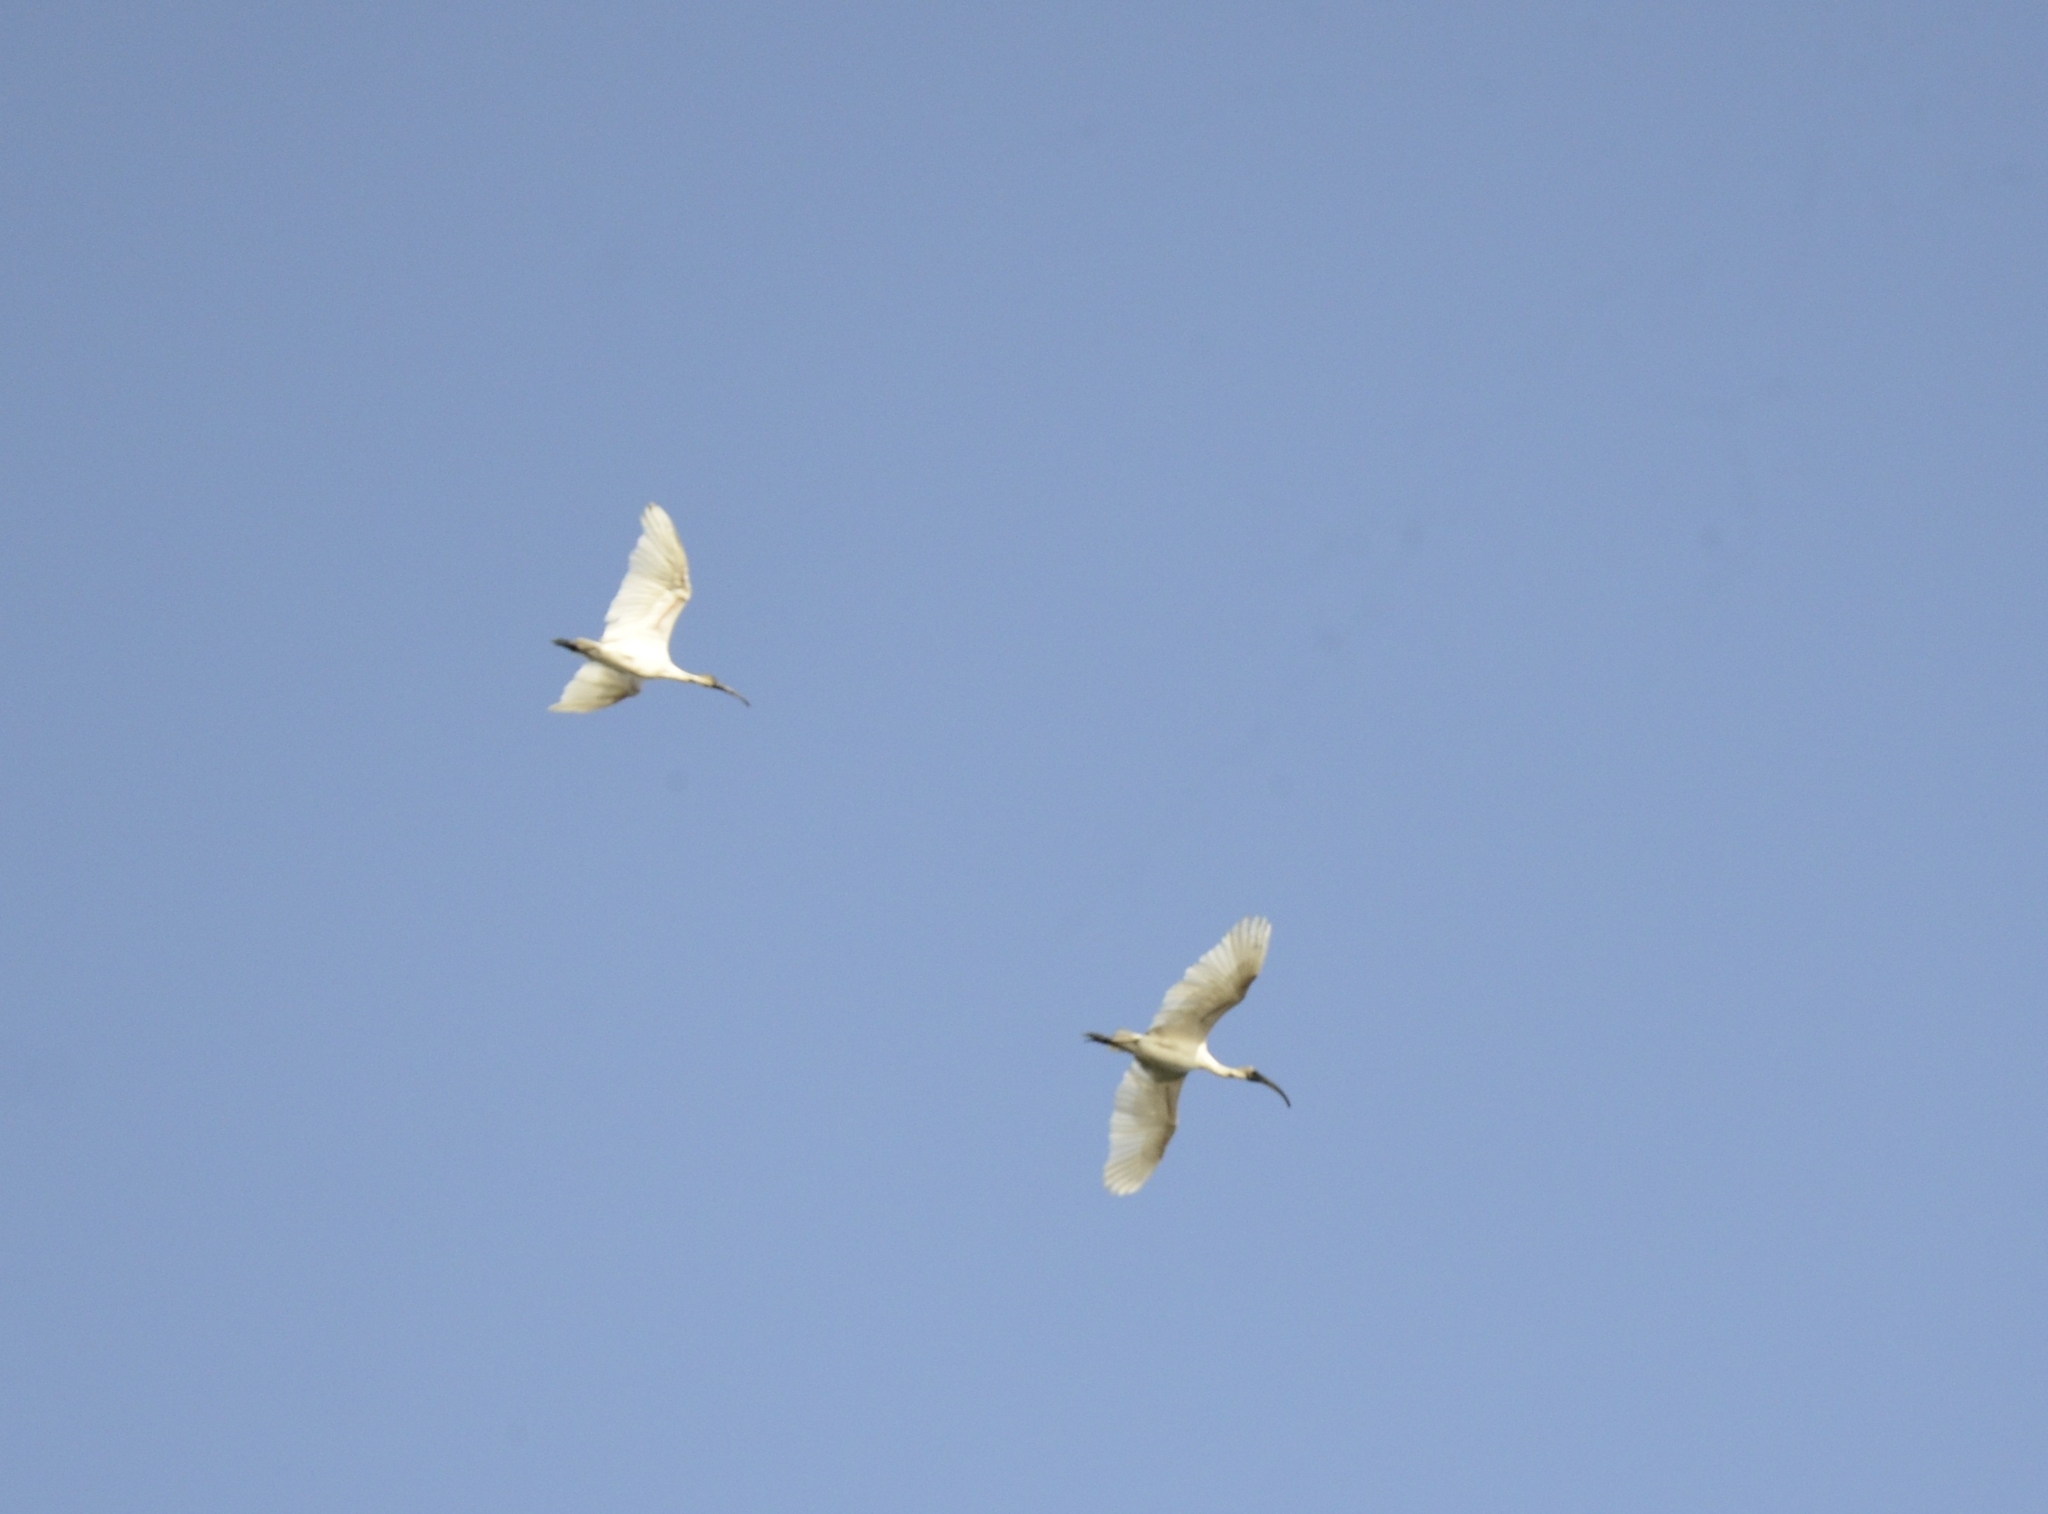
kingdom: Animalia
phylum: Chordata
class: Aves
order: Pelecaniformes
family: Threskiornithidae
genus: Threskiornis
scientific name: Threskiornis melanocephalus
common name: Black-headed ibis
